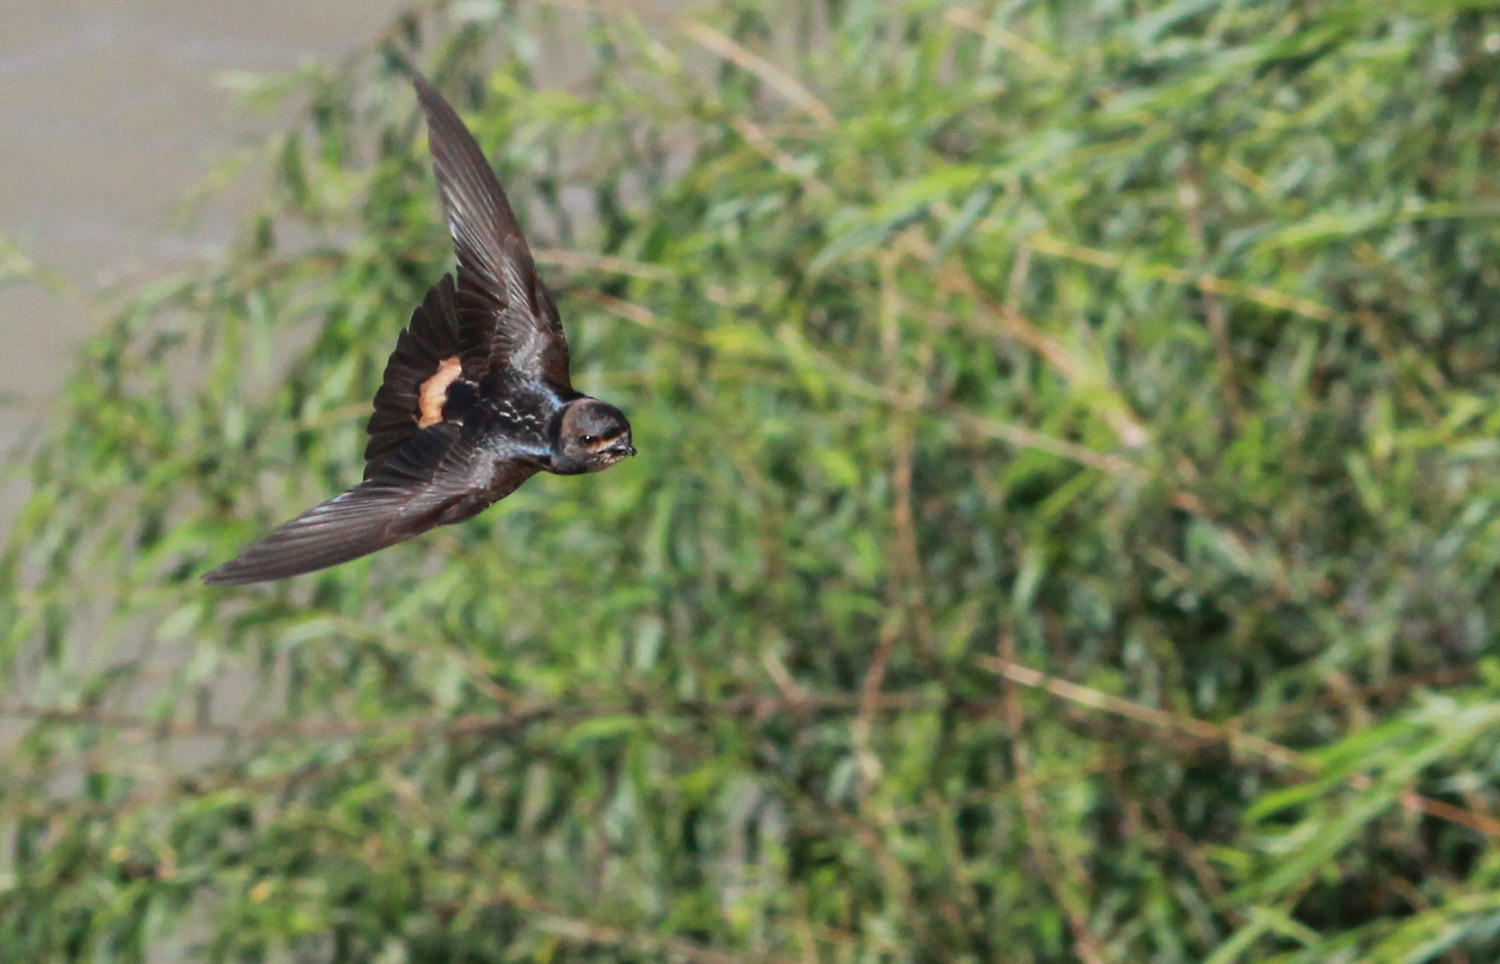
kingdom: Animalia
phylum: Chordata
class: Aves
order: Passeriformes
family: Hirundinidae
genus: Petrochelidon
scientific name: Petrochelidon spilodera
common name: South african swallow
